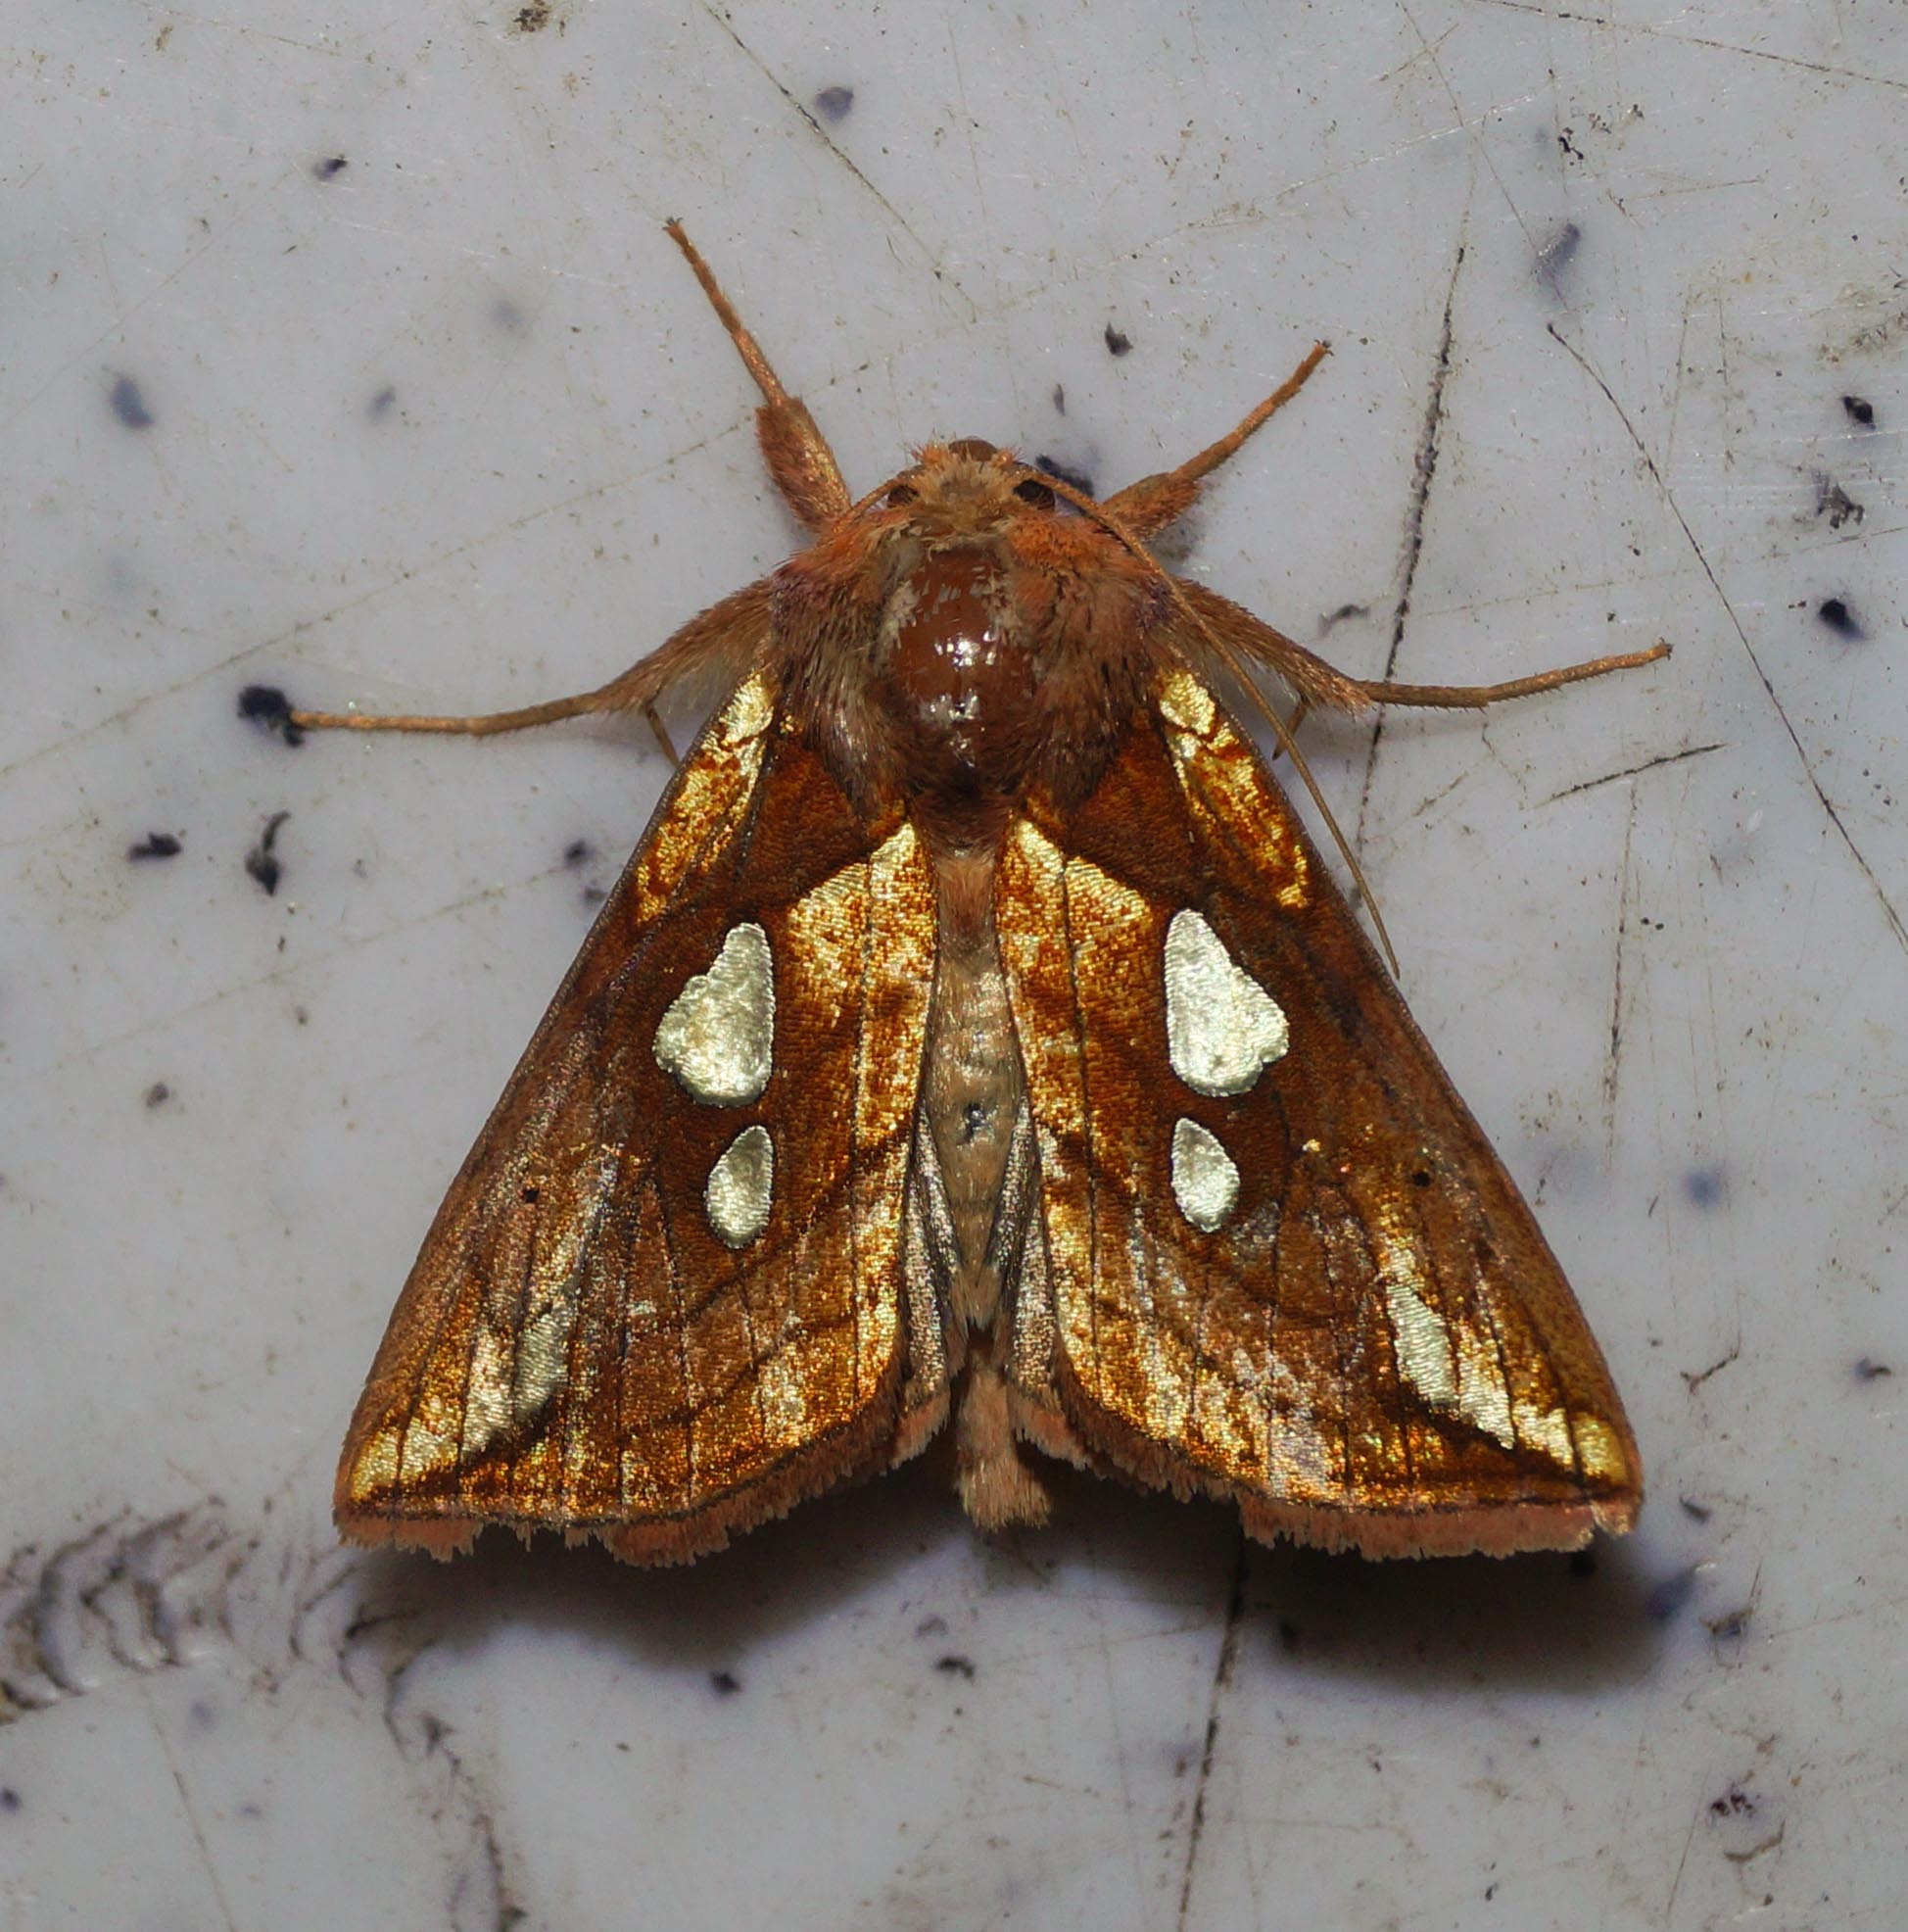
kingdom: Animalia
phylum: Arthropoda
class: Insecta
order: Lepidoptera
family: Noctuidae
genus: Plusia
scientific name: Plusia putnami
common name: Lempke's gold spot
